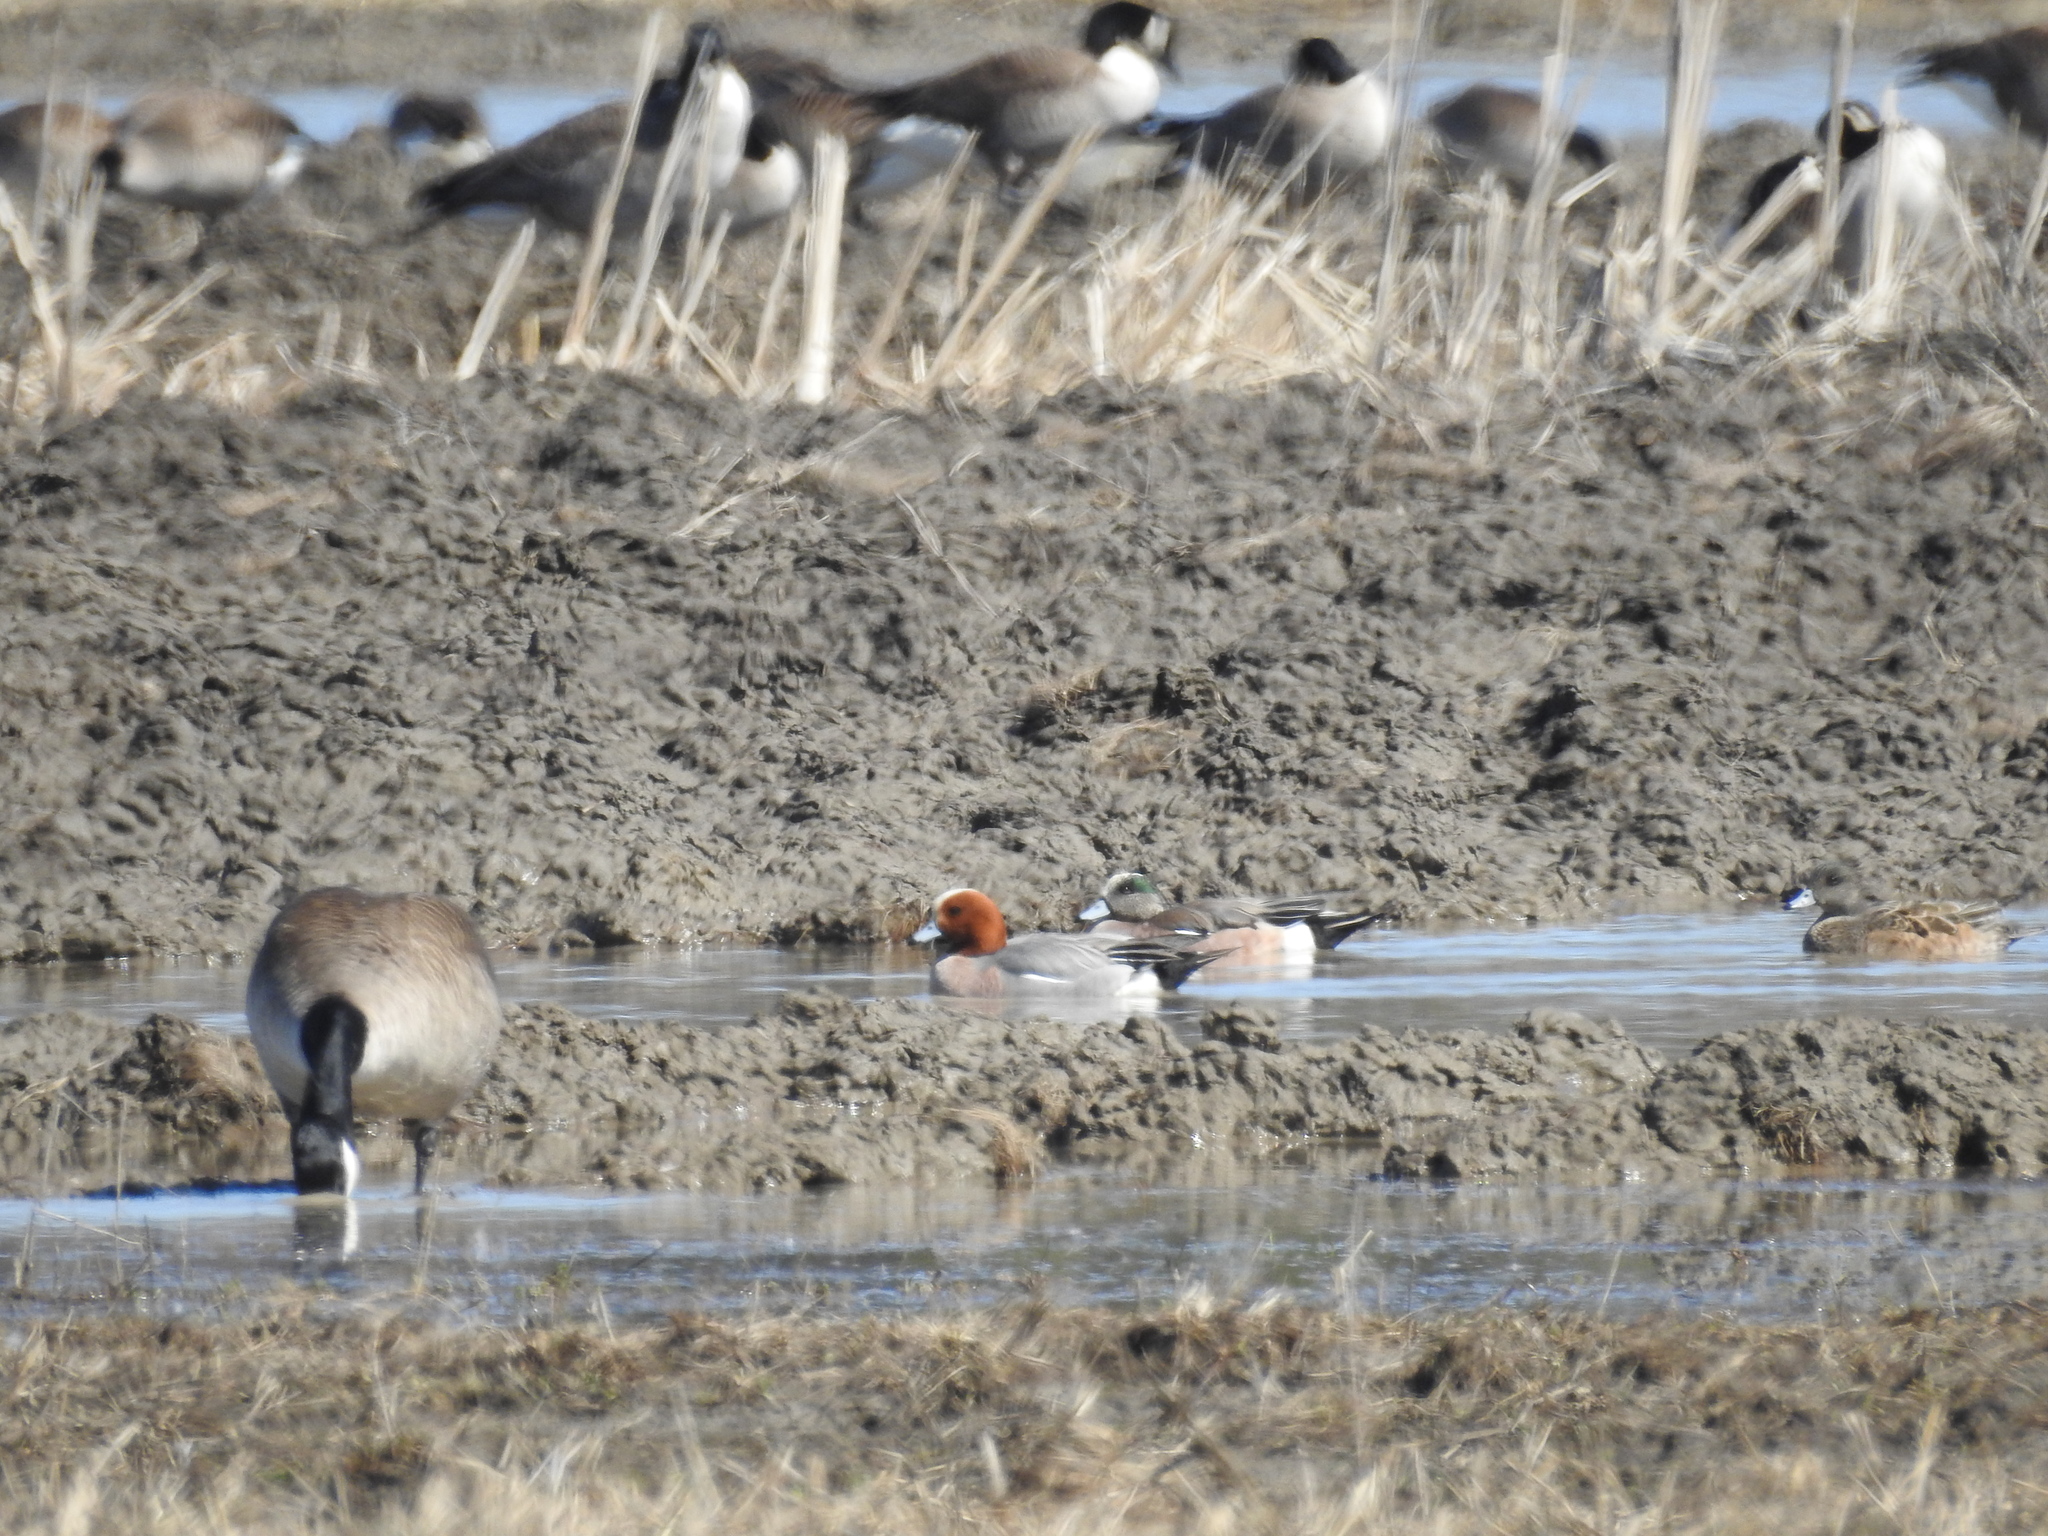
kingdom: Animalia
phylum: Chordata
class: Aves
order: Anseriformes
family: Anatidae
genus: Mareca
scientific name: Mareca penelope
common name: Eurasian wigeon
